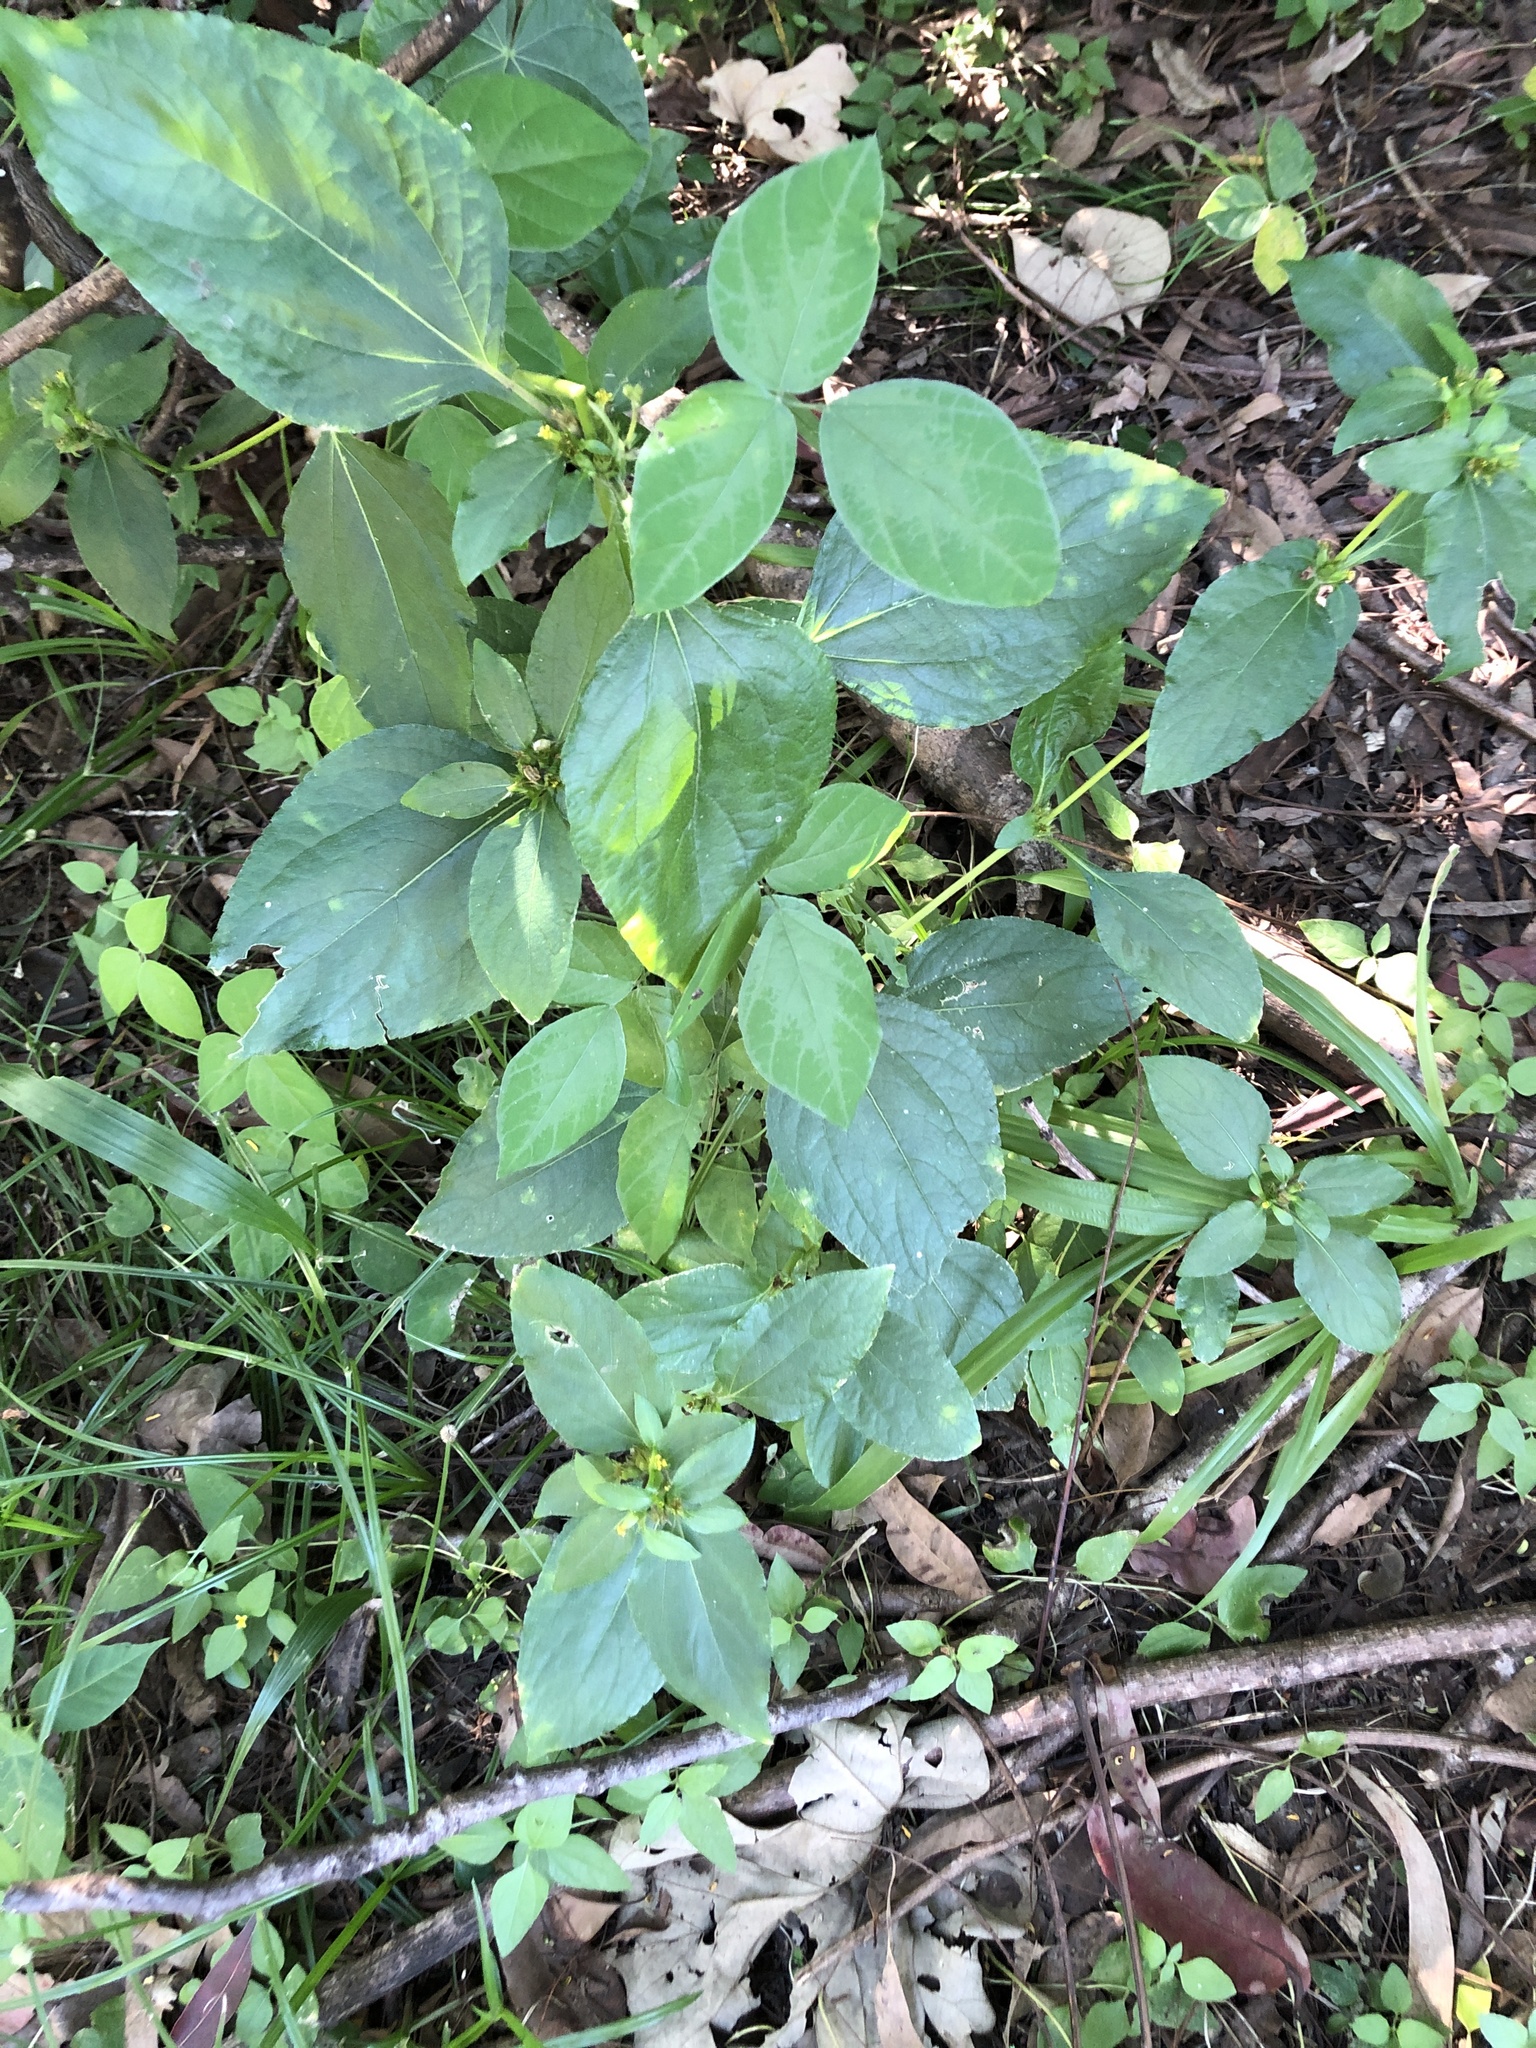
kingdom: Plantae
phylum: Tracheophyta
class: Magnoliopsida
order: Asterales
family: Asteraceae
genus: Synedrella
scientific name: Synedrella nodiflora
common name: Nodeweed
